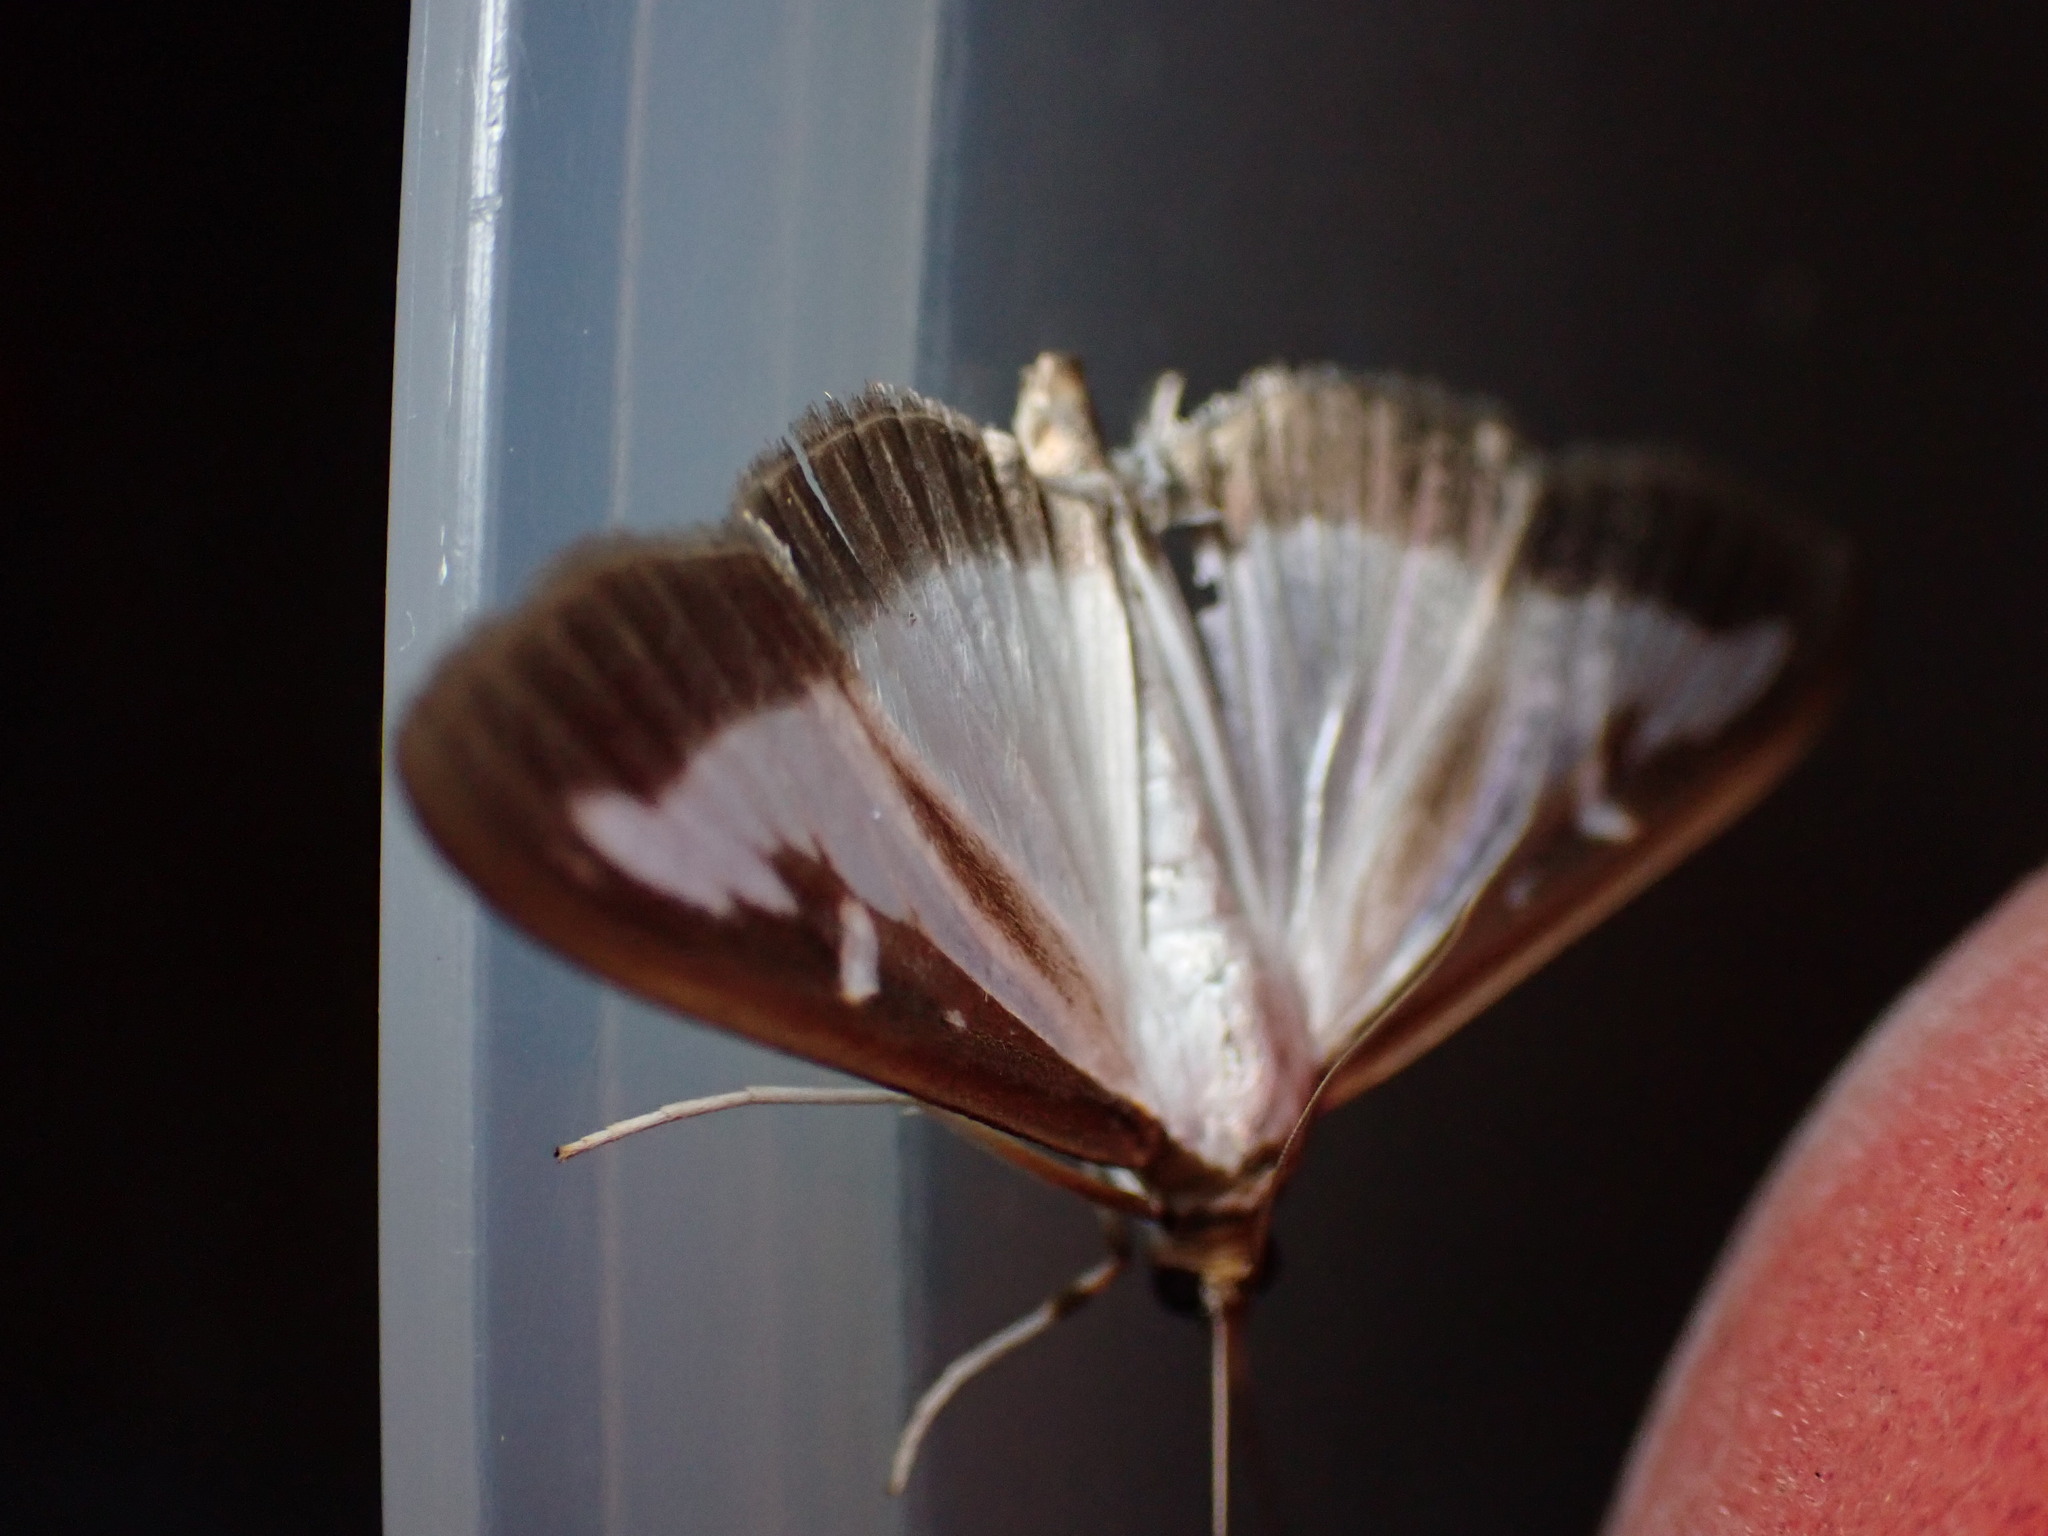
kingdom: Animalia
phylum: Arthropoda
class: Insecta
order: Lepidoptera
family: Crambidae
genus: Cydalima
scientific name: Cydalima perspectalis
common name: Box tree moth
